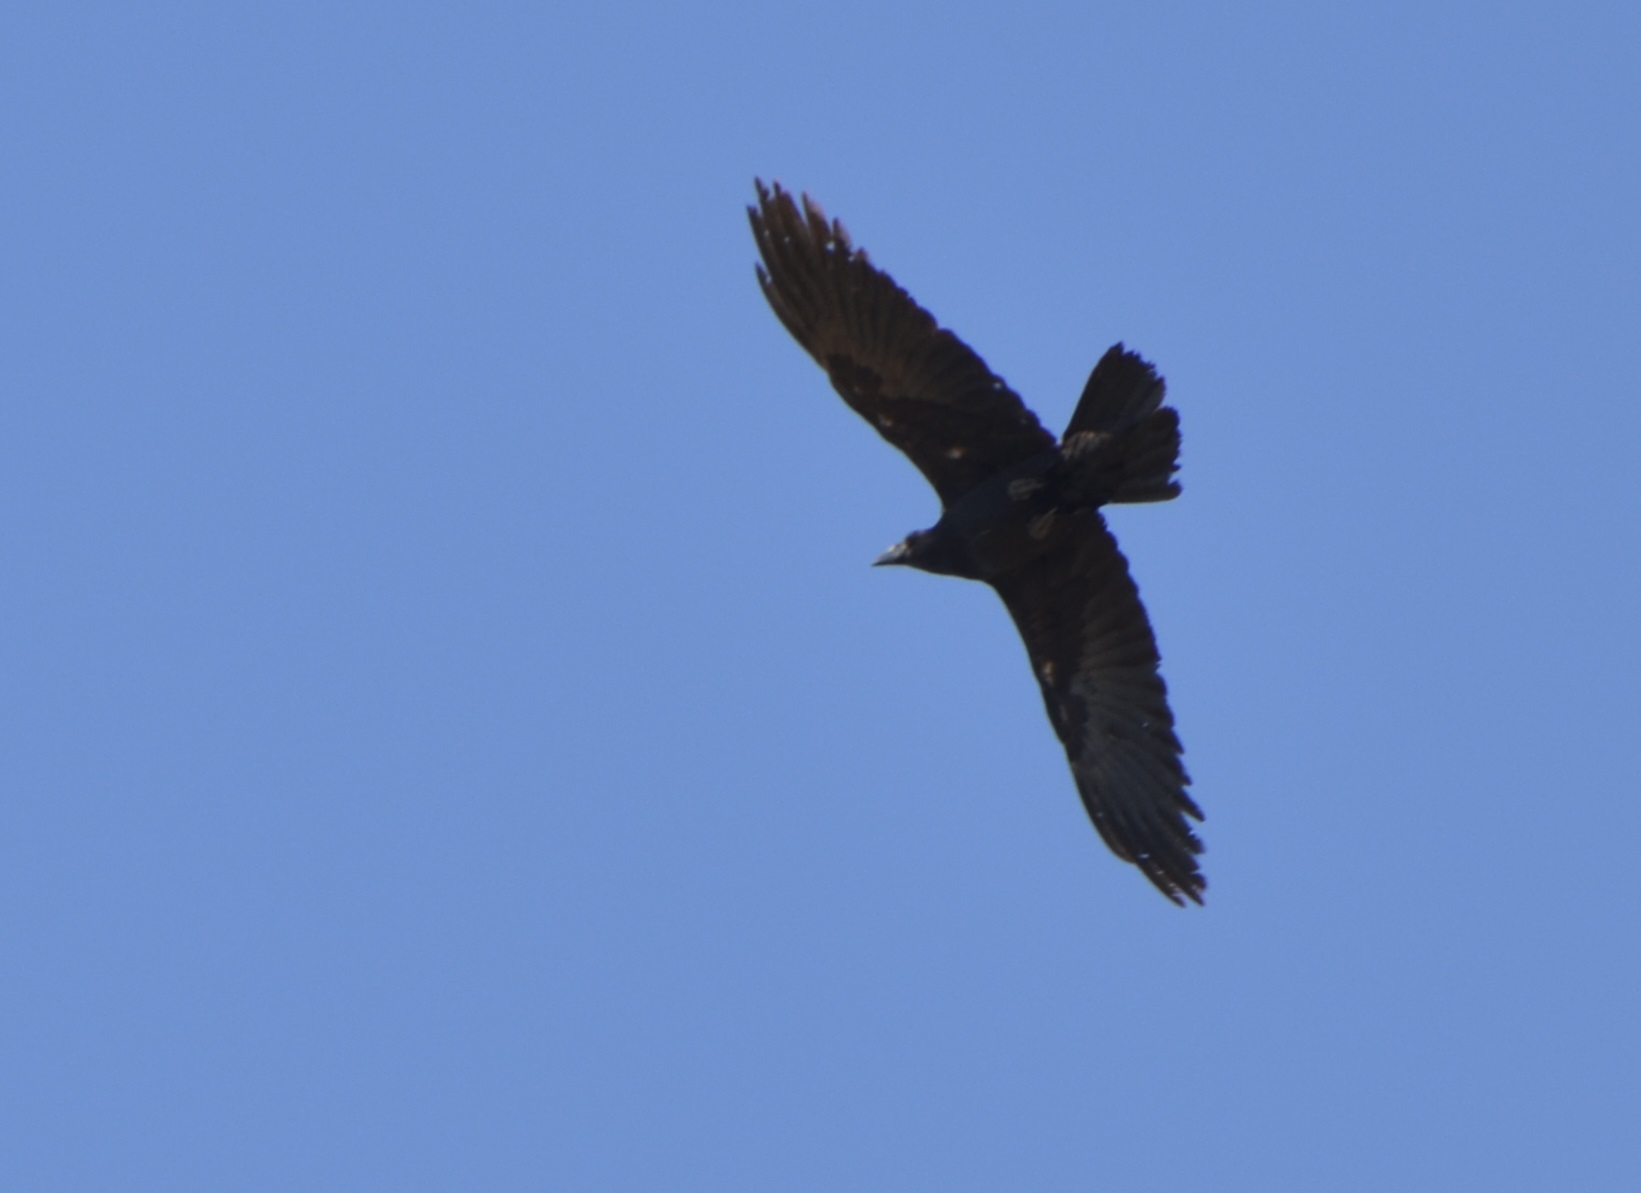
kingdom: Animalia
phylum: Chordata
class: Aves
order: Passeriformes
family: Corvidae
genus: Corvus
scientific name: Corvus corax
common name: Common raven
